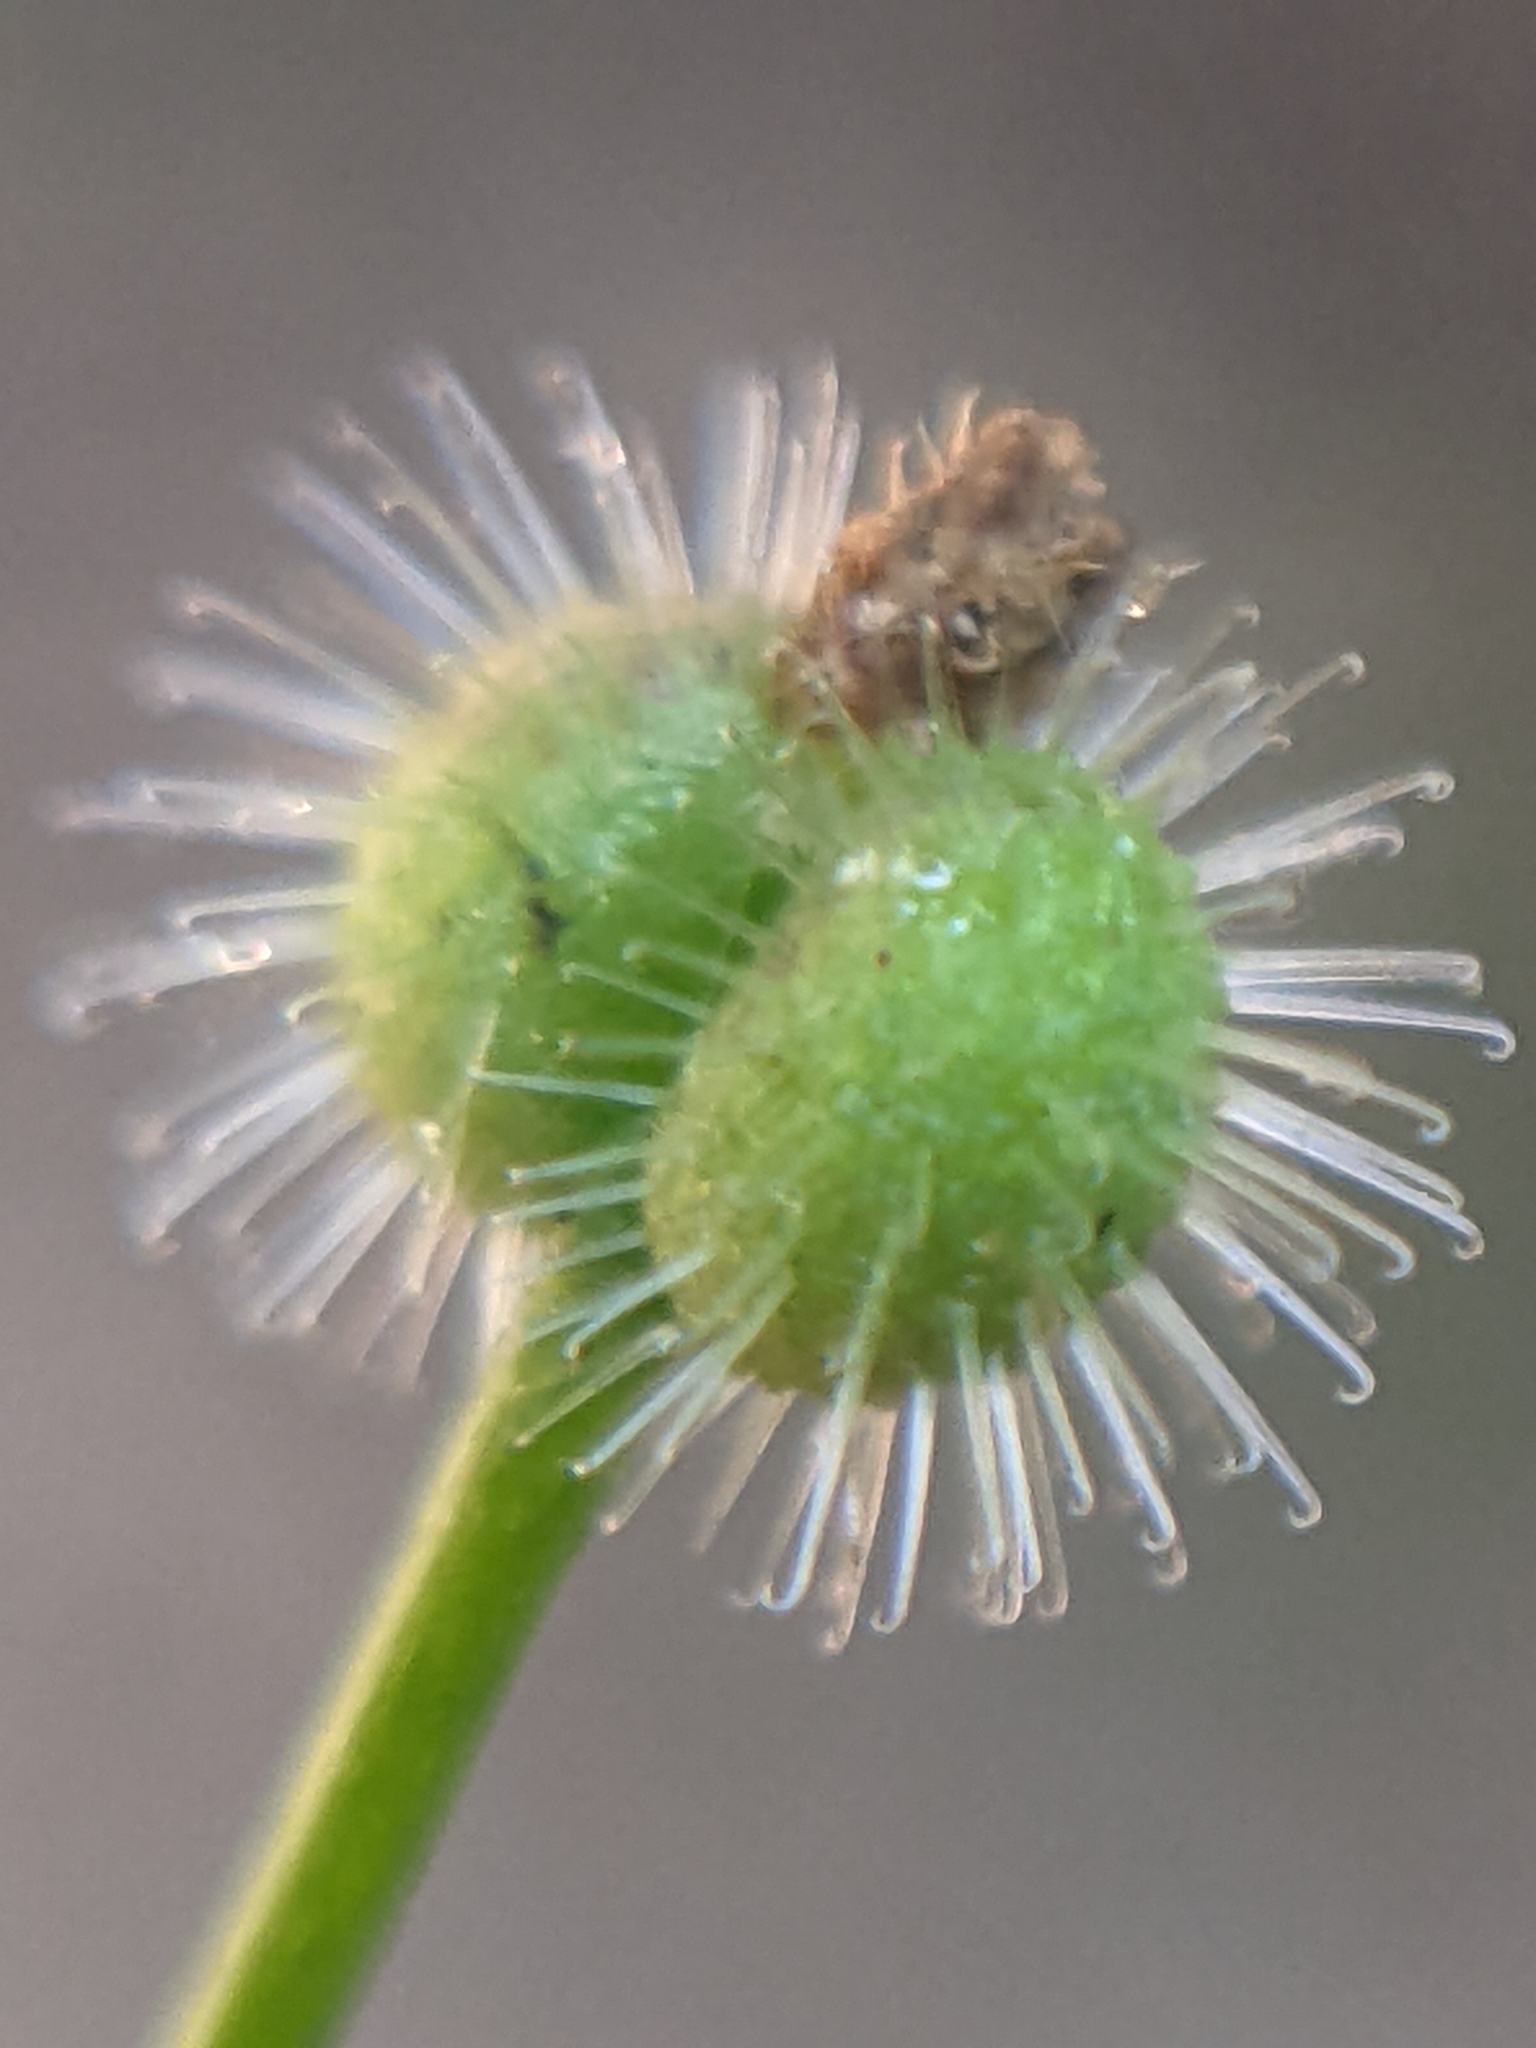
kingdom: Plantae
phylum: Tracheophyta
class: Magnoliopsida
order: Gentianales
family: Rubiaceae
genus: Galium
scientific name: Galium triflorum
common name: Fragrant bedstraw
